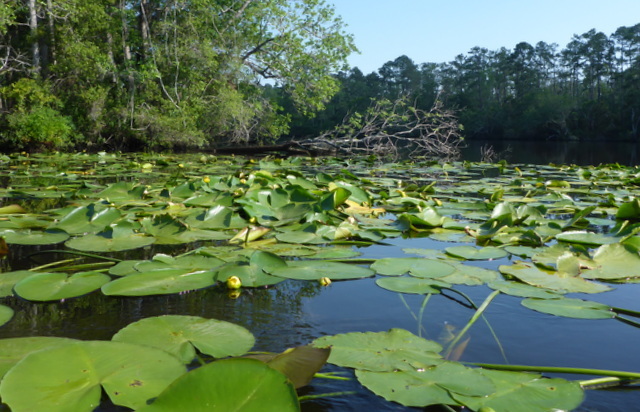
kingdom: Plantae
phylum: Tracheophyta
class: Magnoliopsida
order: Nymphaeales
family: Nymphaeaceae
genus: Nuphar
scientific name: Nuphar advena
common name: Spatter-dock
